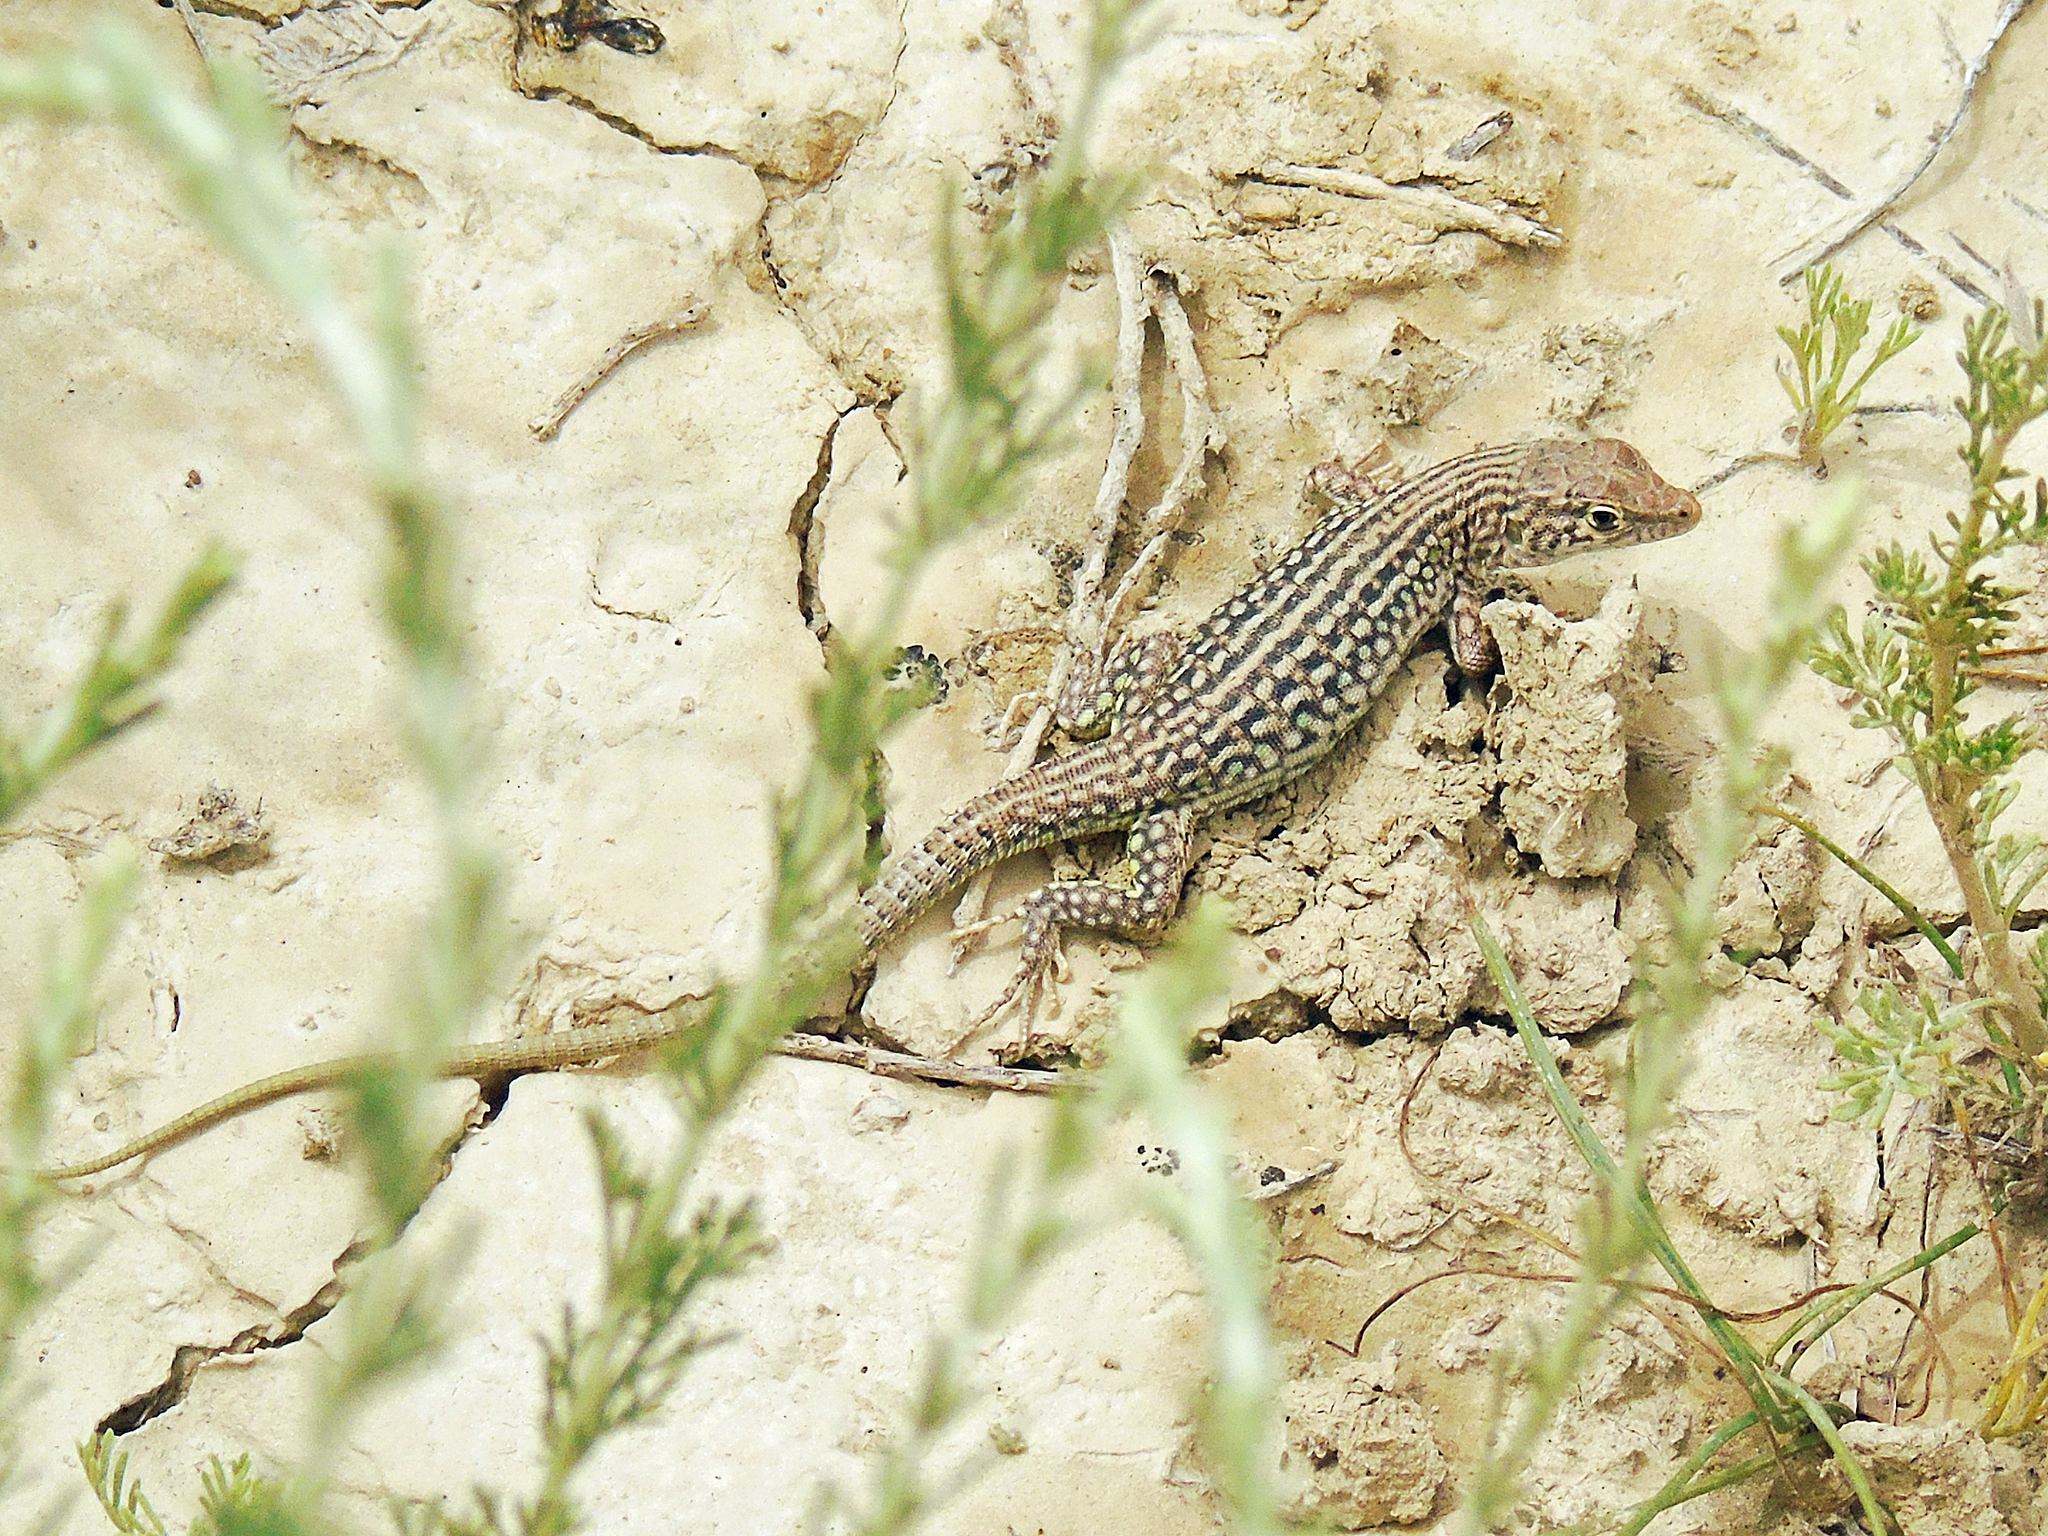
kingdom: Animalia
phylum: Chordata
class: Squamata
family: Lacertidae
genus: Eremias
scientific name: Eremias szczerbaki
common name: Szczerbak’s racerunner
